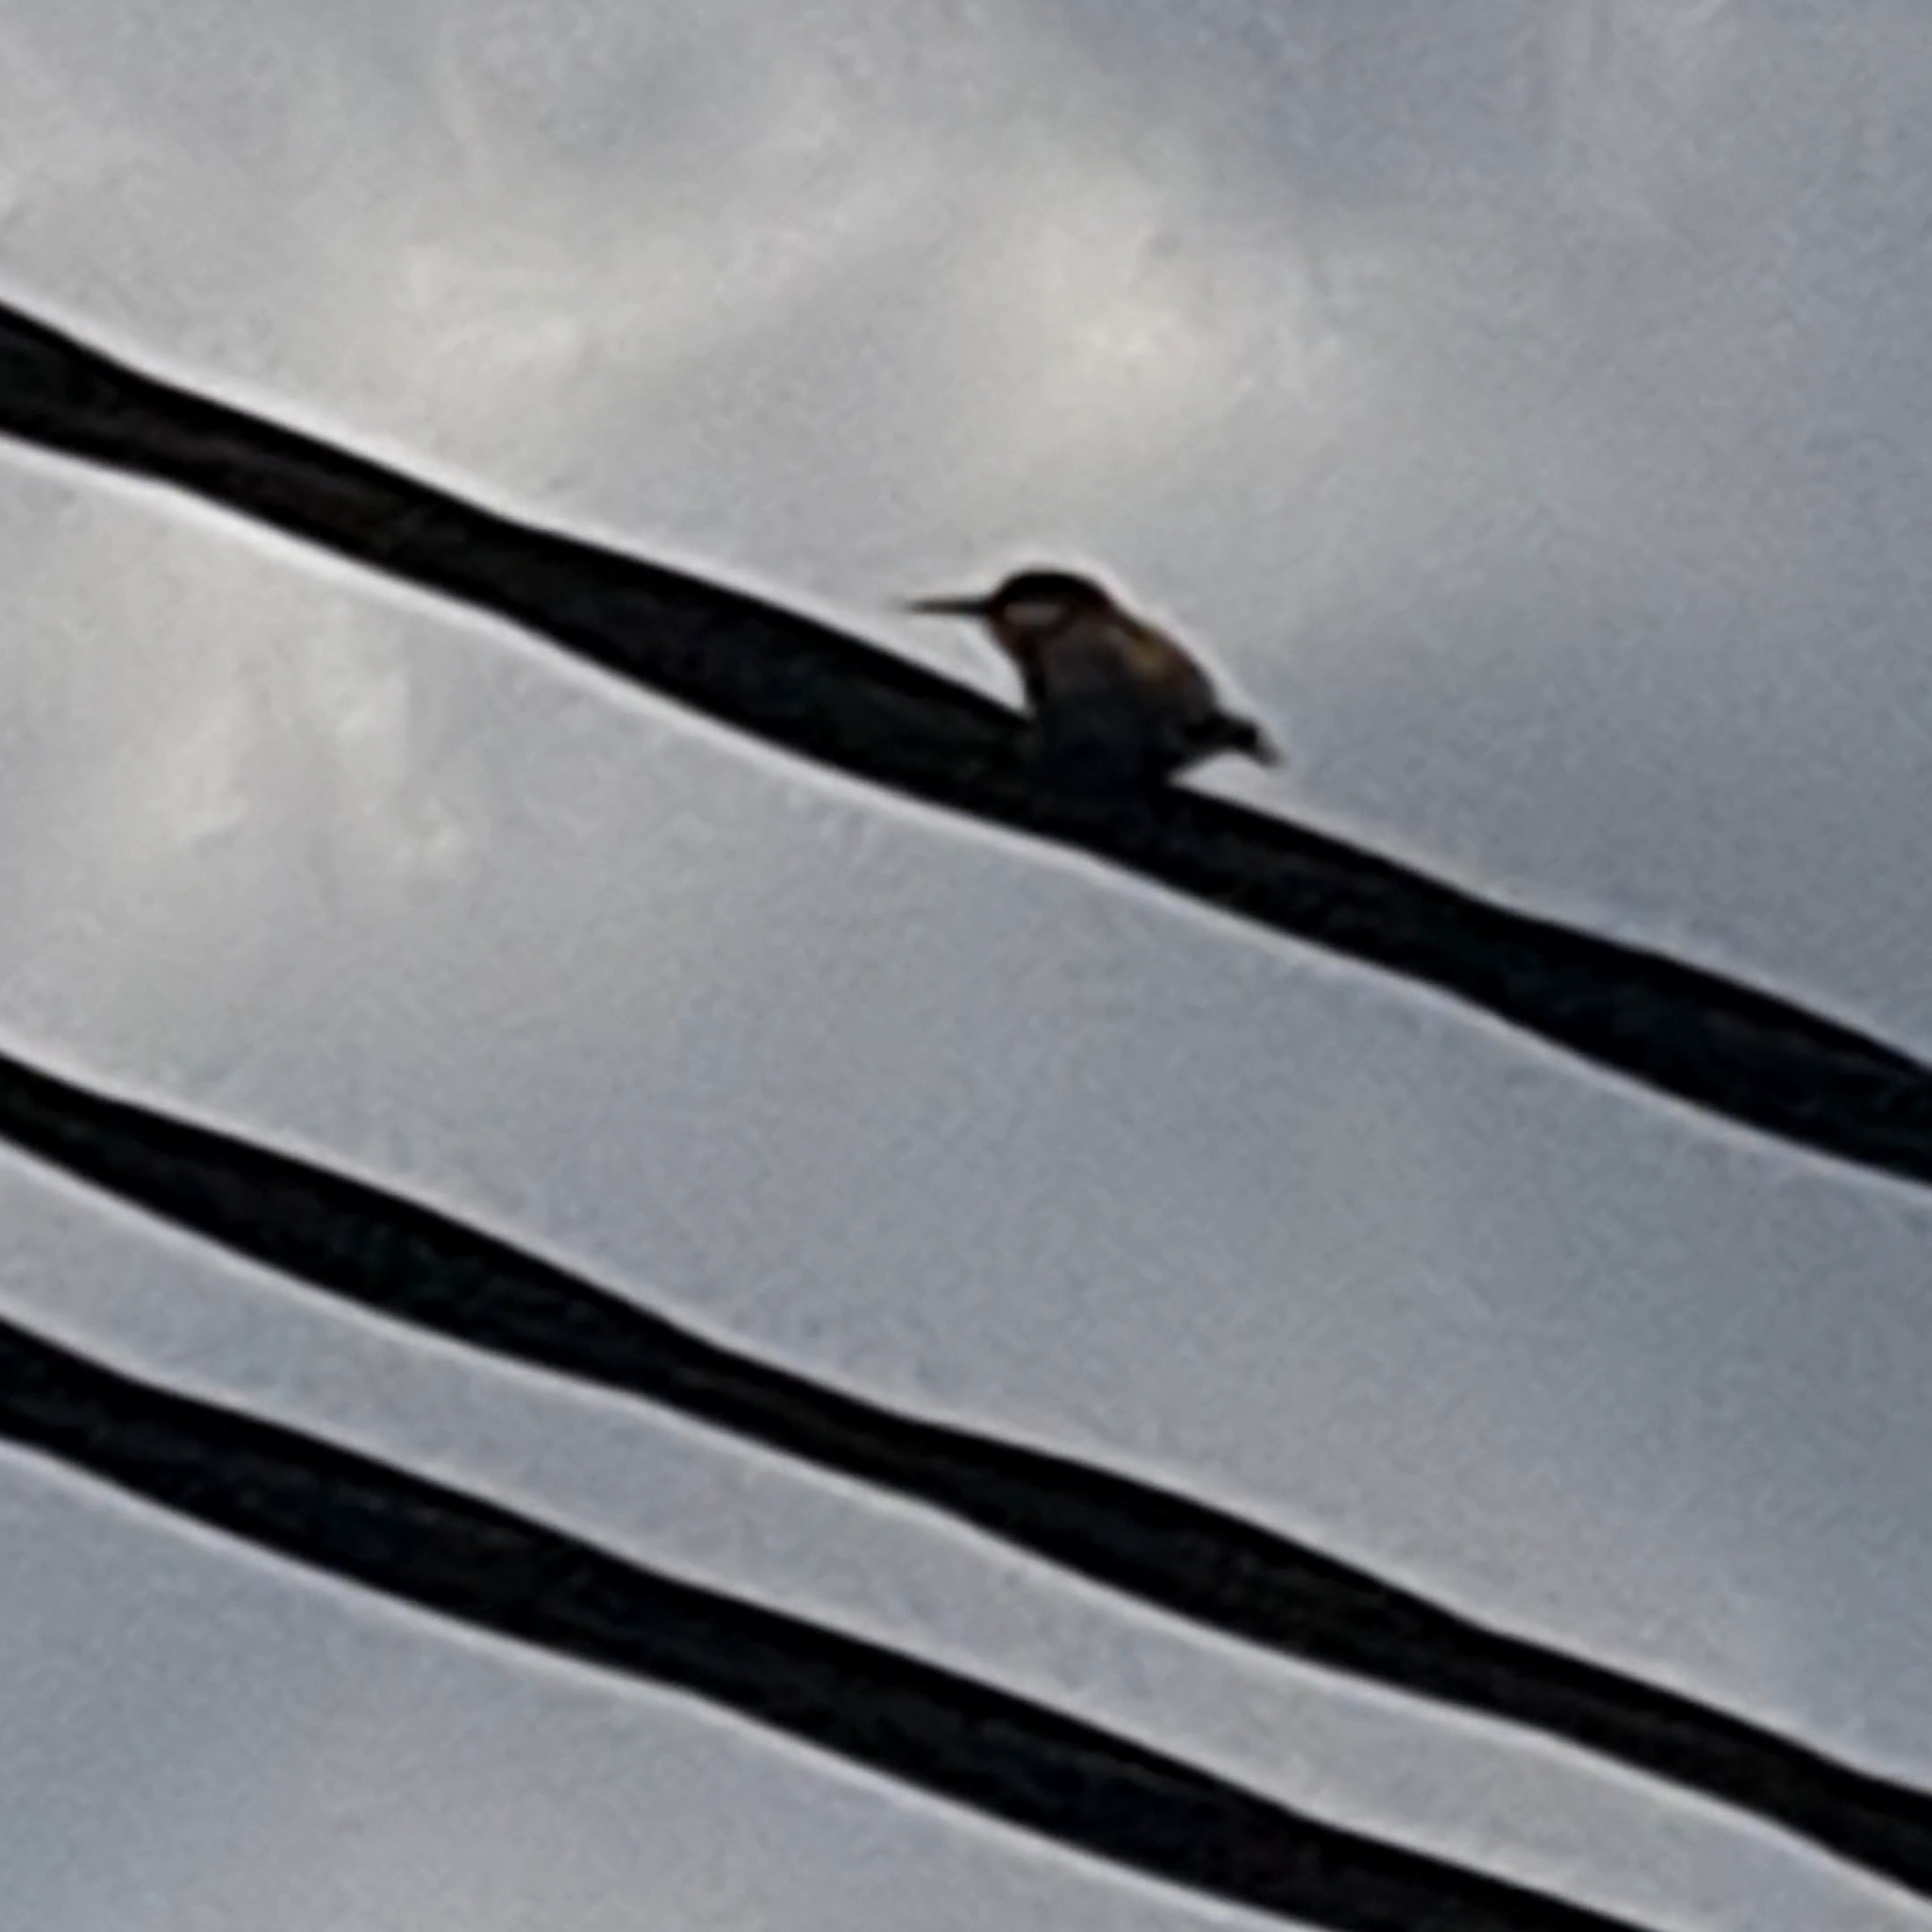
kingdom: Animalia
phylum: Chordata
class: Aves
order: Coraciiformes
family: Meropidae
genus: Merops
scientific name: Merops apiaster
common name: European bee-eater
